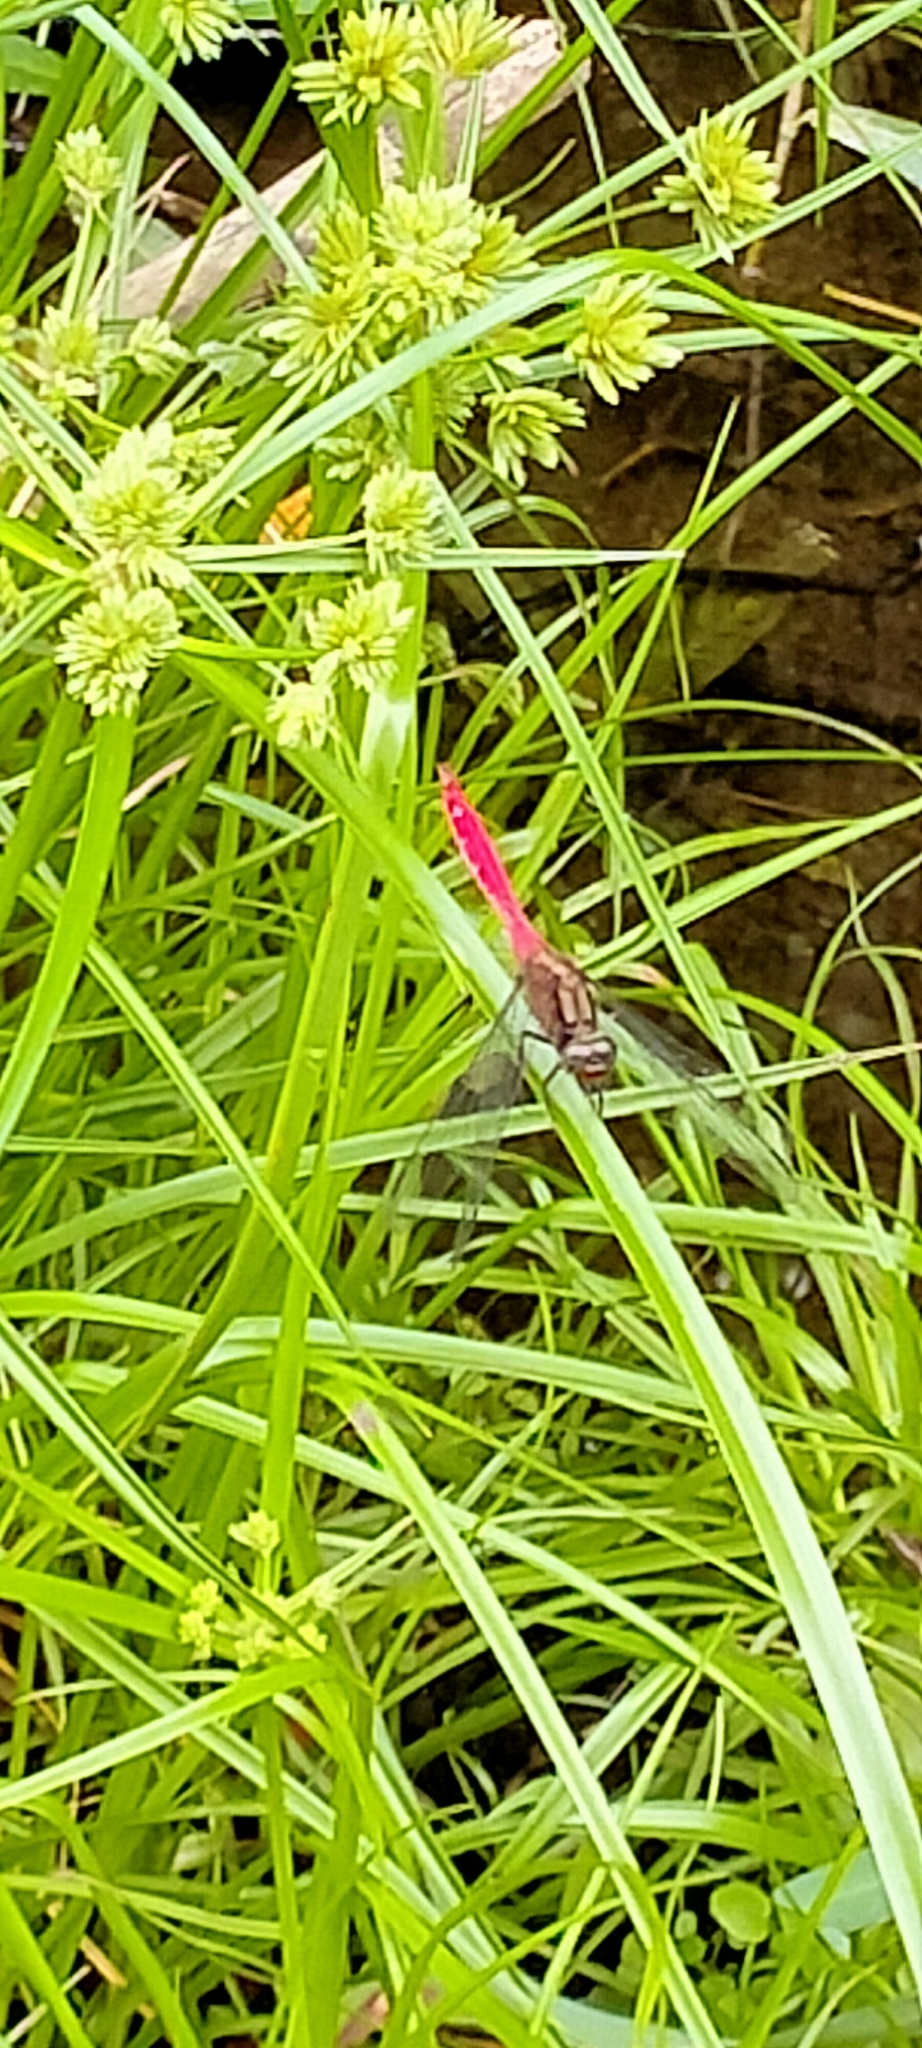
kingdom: Animalia
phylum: Arthropoda
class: Insecta
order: Odonata
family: Libellulidae
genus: Orthetrum
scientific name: Orthetrum villosovittatum
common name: Firery skimmer
